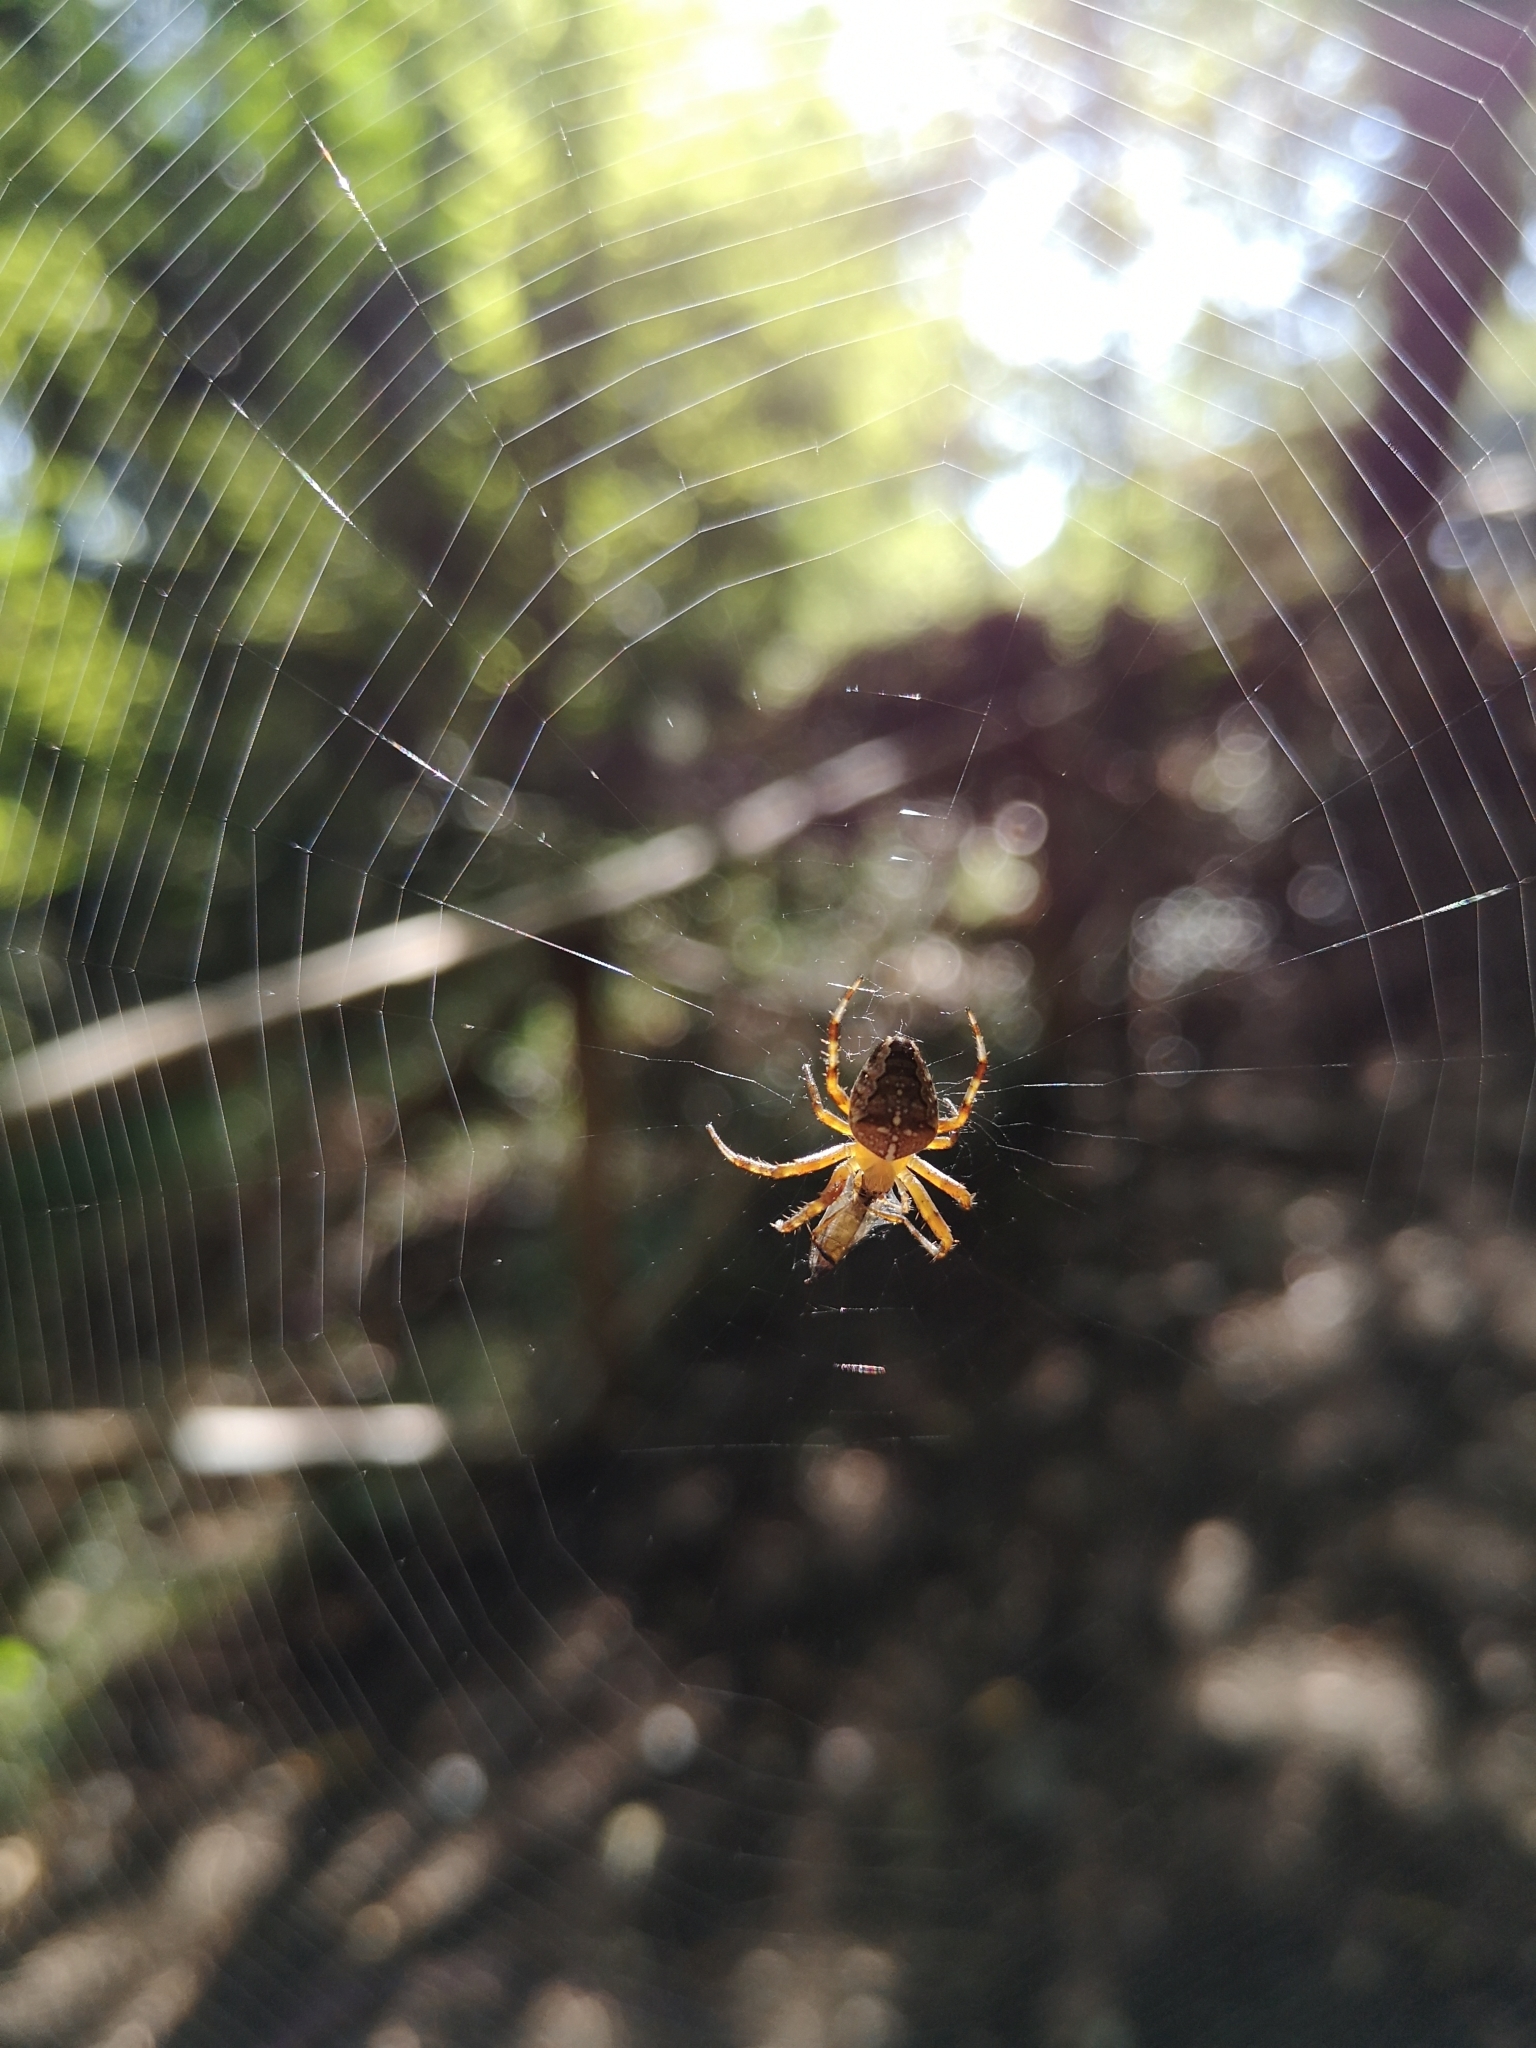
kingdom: Animalia
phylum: Arthropoda
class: Arachnida
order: Araneae
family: Araneidae
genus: Araneus
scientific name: Araneus diadematus
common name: Cross orbweaver
